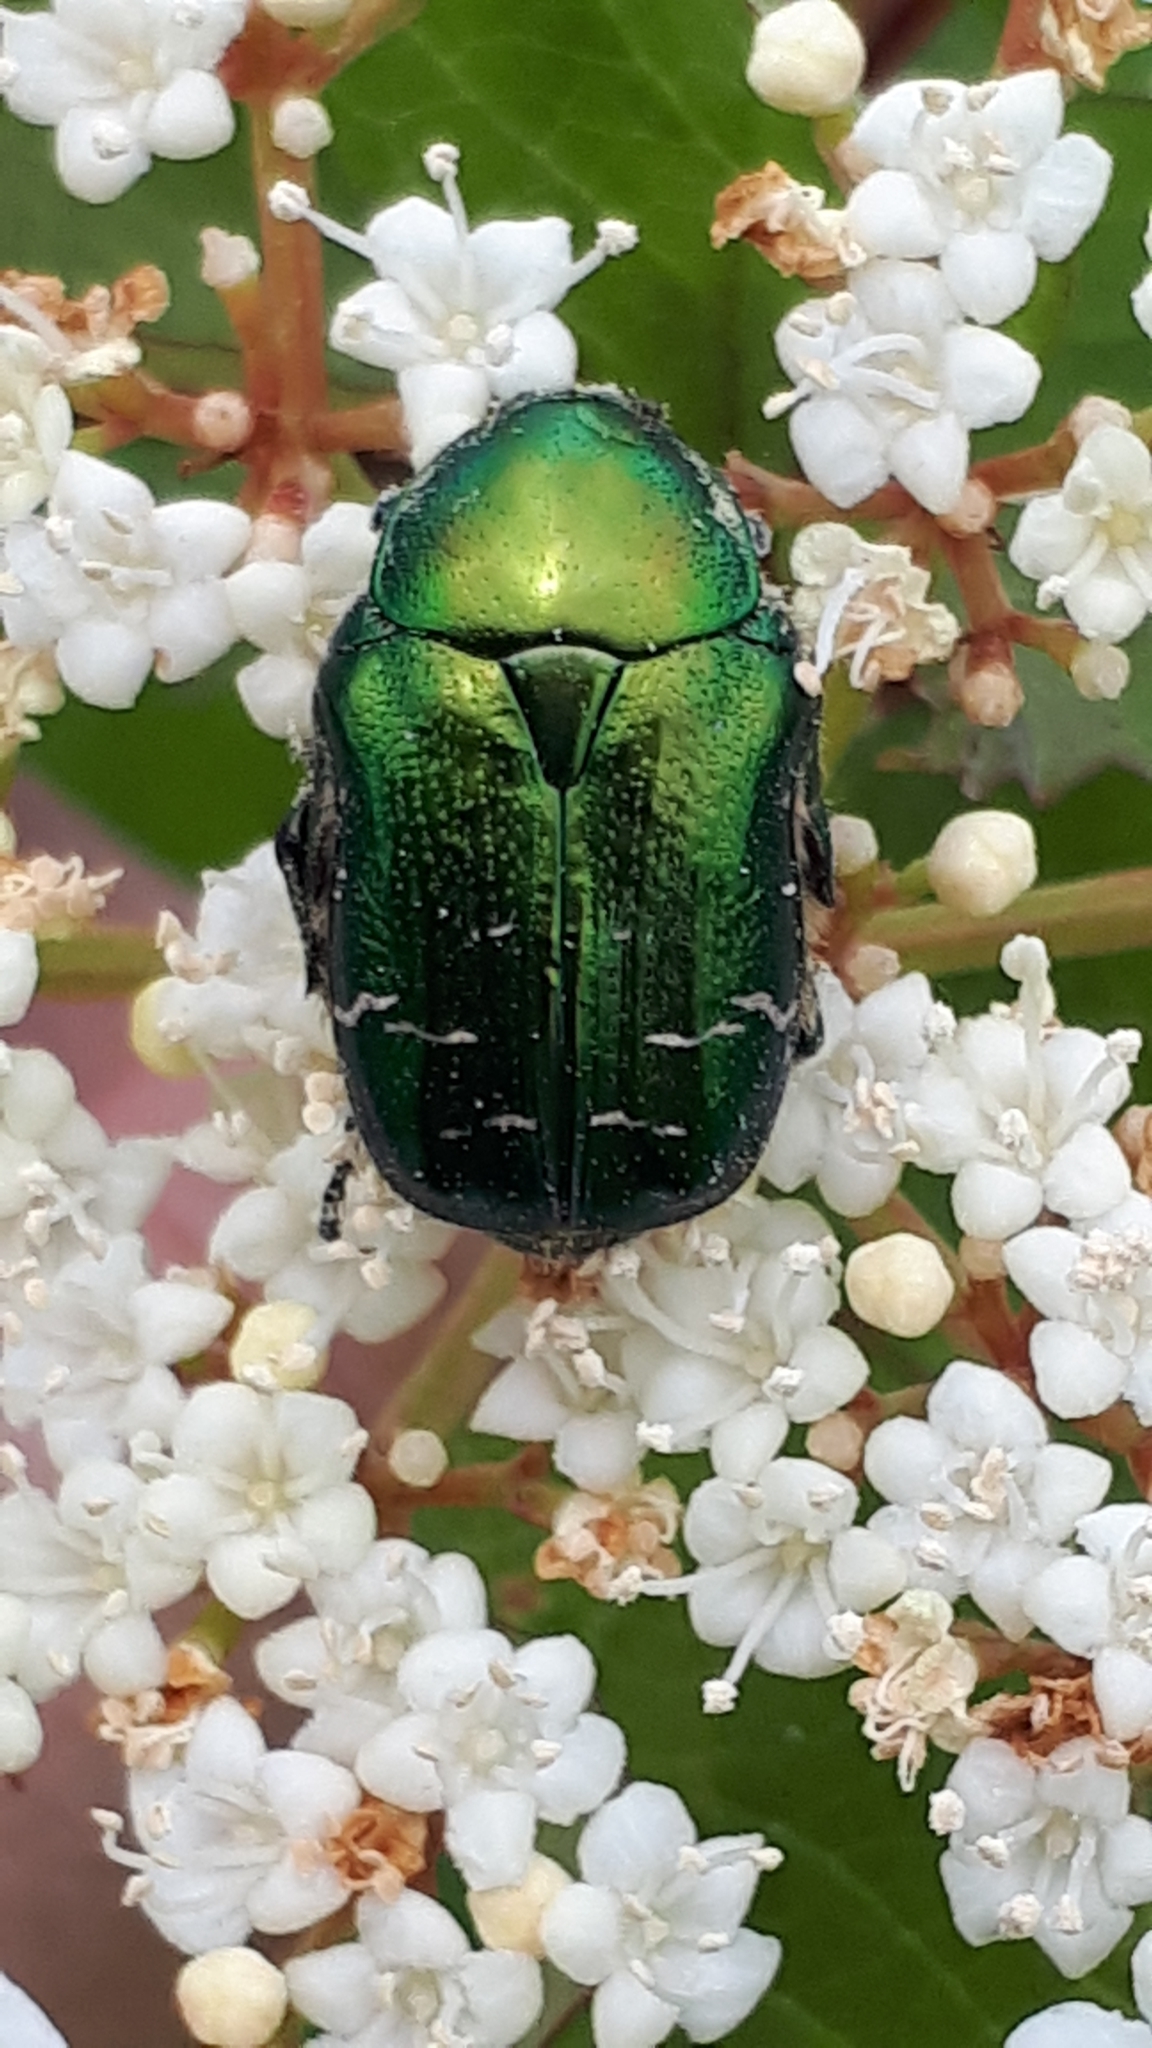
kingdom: Animalia
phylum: Arthropoda
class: Insecta
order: Coleoptera
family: Scarabaeidae
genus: Cetonia
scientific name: Cetonia aurata
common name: Rose chafer
